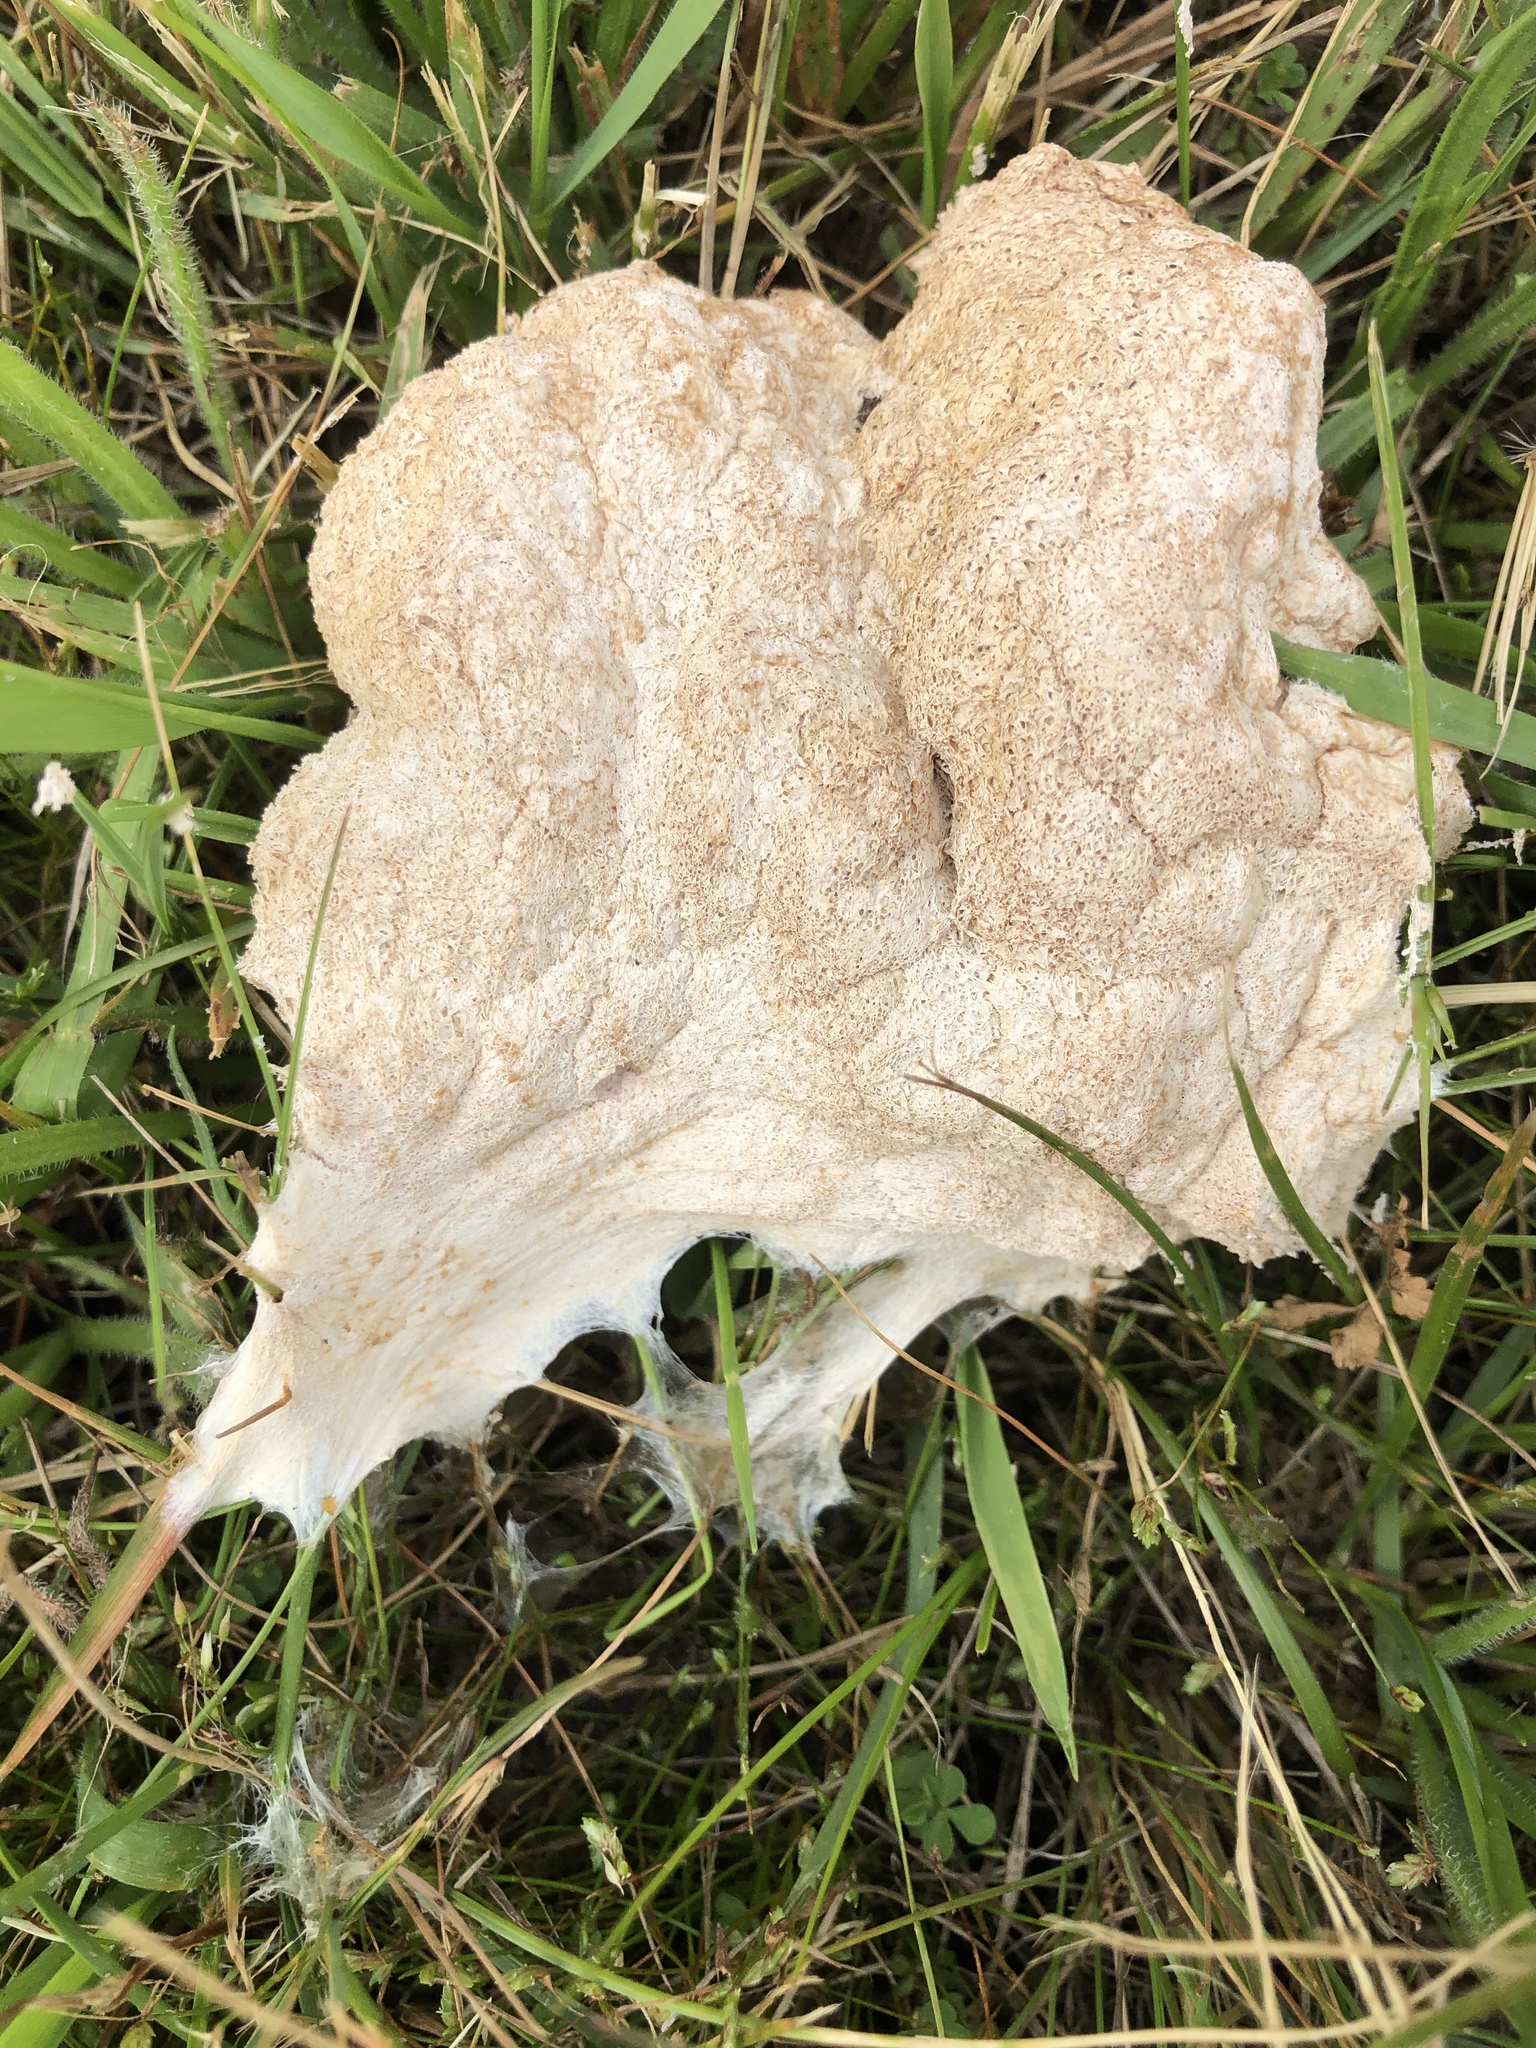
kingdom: Protozoa
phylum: Mycetozoa
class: Myxomycetes
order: Physarales
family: Physaraceae
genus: Fuligo
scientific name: Fuligo septica
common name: Dog vomit slime mold
